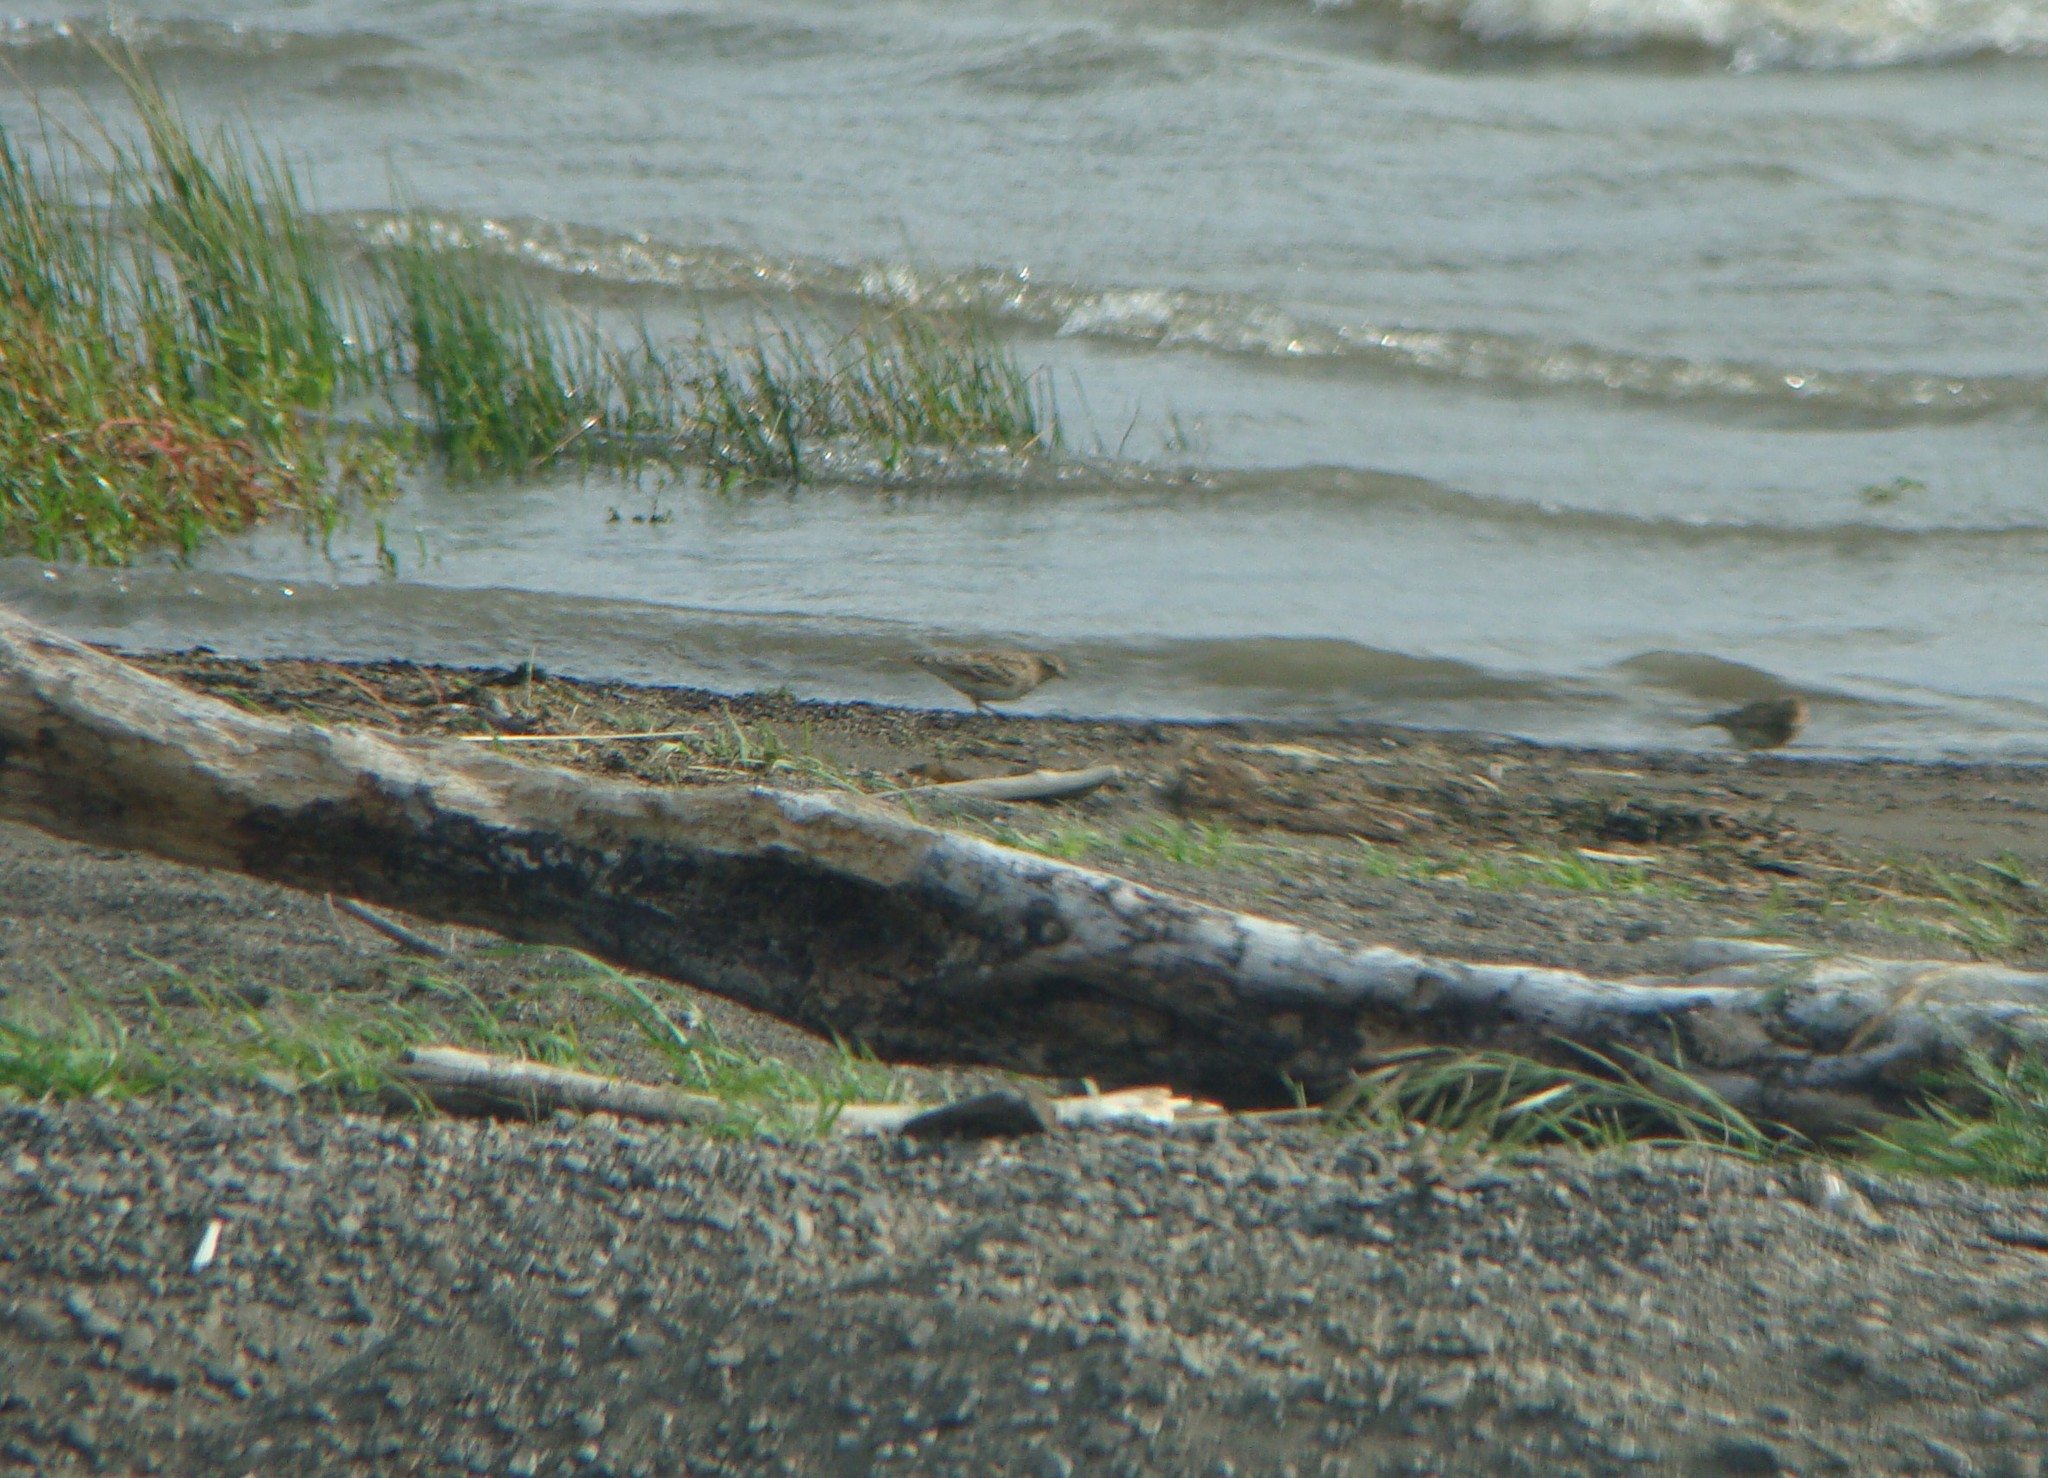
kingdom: Animalia
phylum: Chordata
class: Aves
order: Passeriformes
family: Alaudidae
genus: Alauda
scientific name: Alauda arvensis
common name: Eurasian skylark
